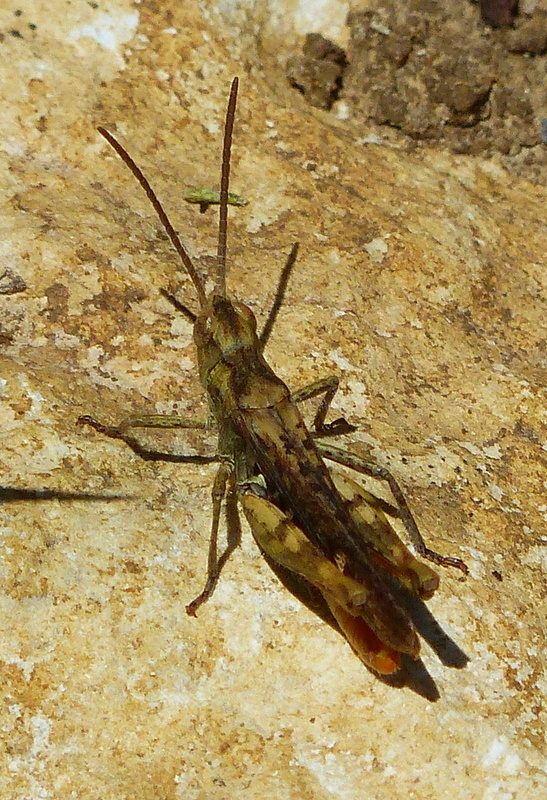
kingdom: Animalia
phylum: Arthropoda
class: Insecta
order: Orthoptera
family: Acrididae
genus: Chorthippus
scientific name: Chorthippus brunneus
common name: Field grasshopper
